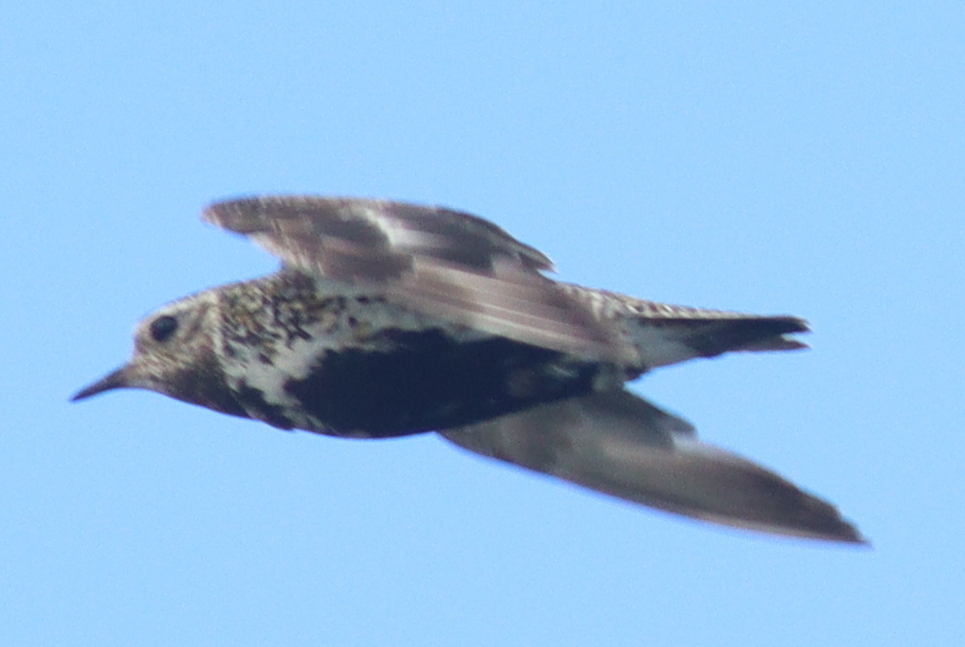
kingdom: Animalia
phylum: Chordata
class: Aves
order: Charadriiformes
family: Charadriidae
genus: Pluvialis
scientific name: Pluvialis apricaria
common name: European golden plover
